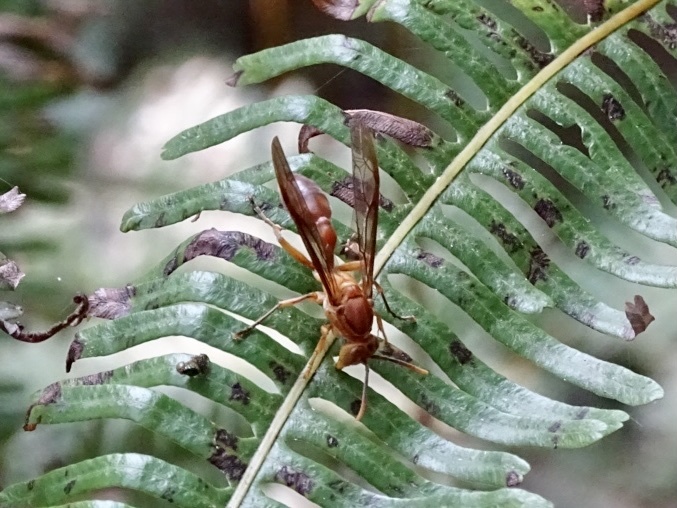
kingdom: Animalia
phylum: Arthropoda
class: Insecta
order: Hymenoptera
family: Vespidae
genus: Parapolybia
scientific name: Parapolybia indica
